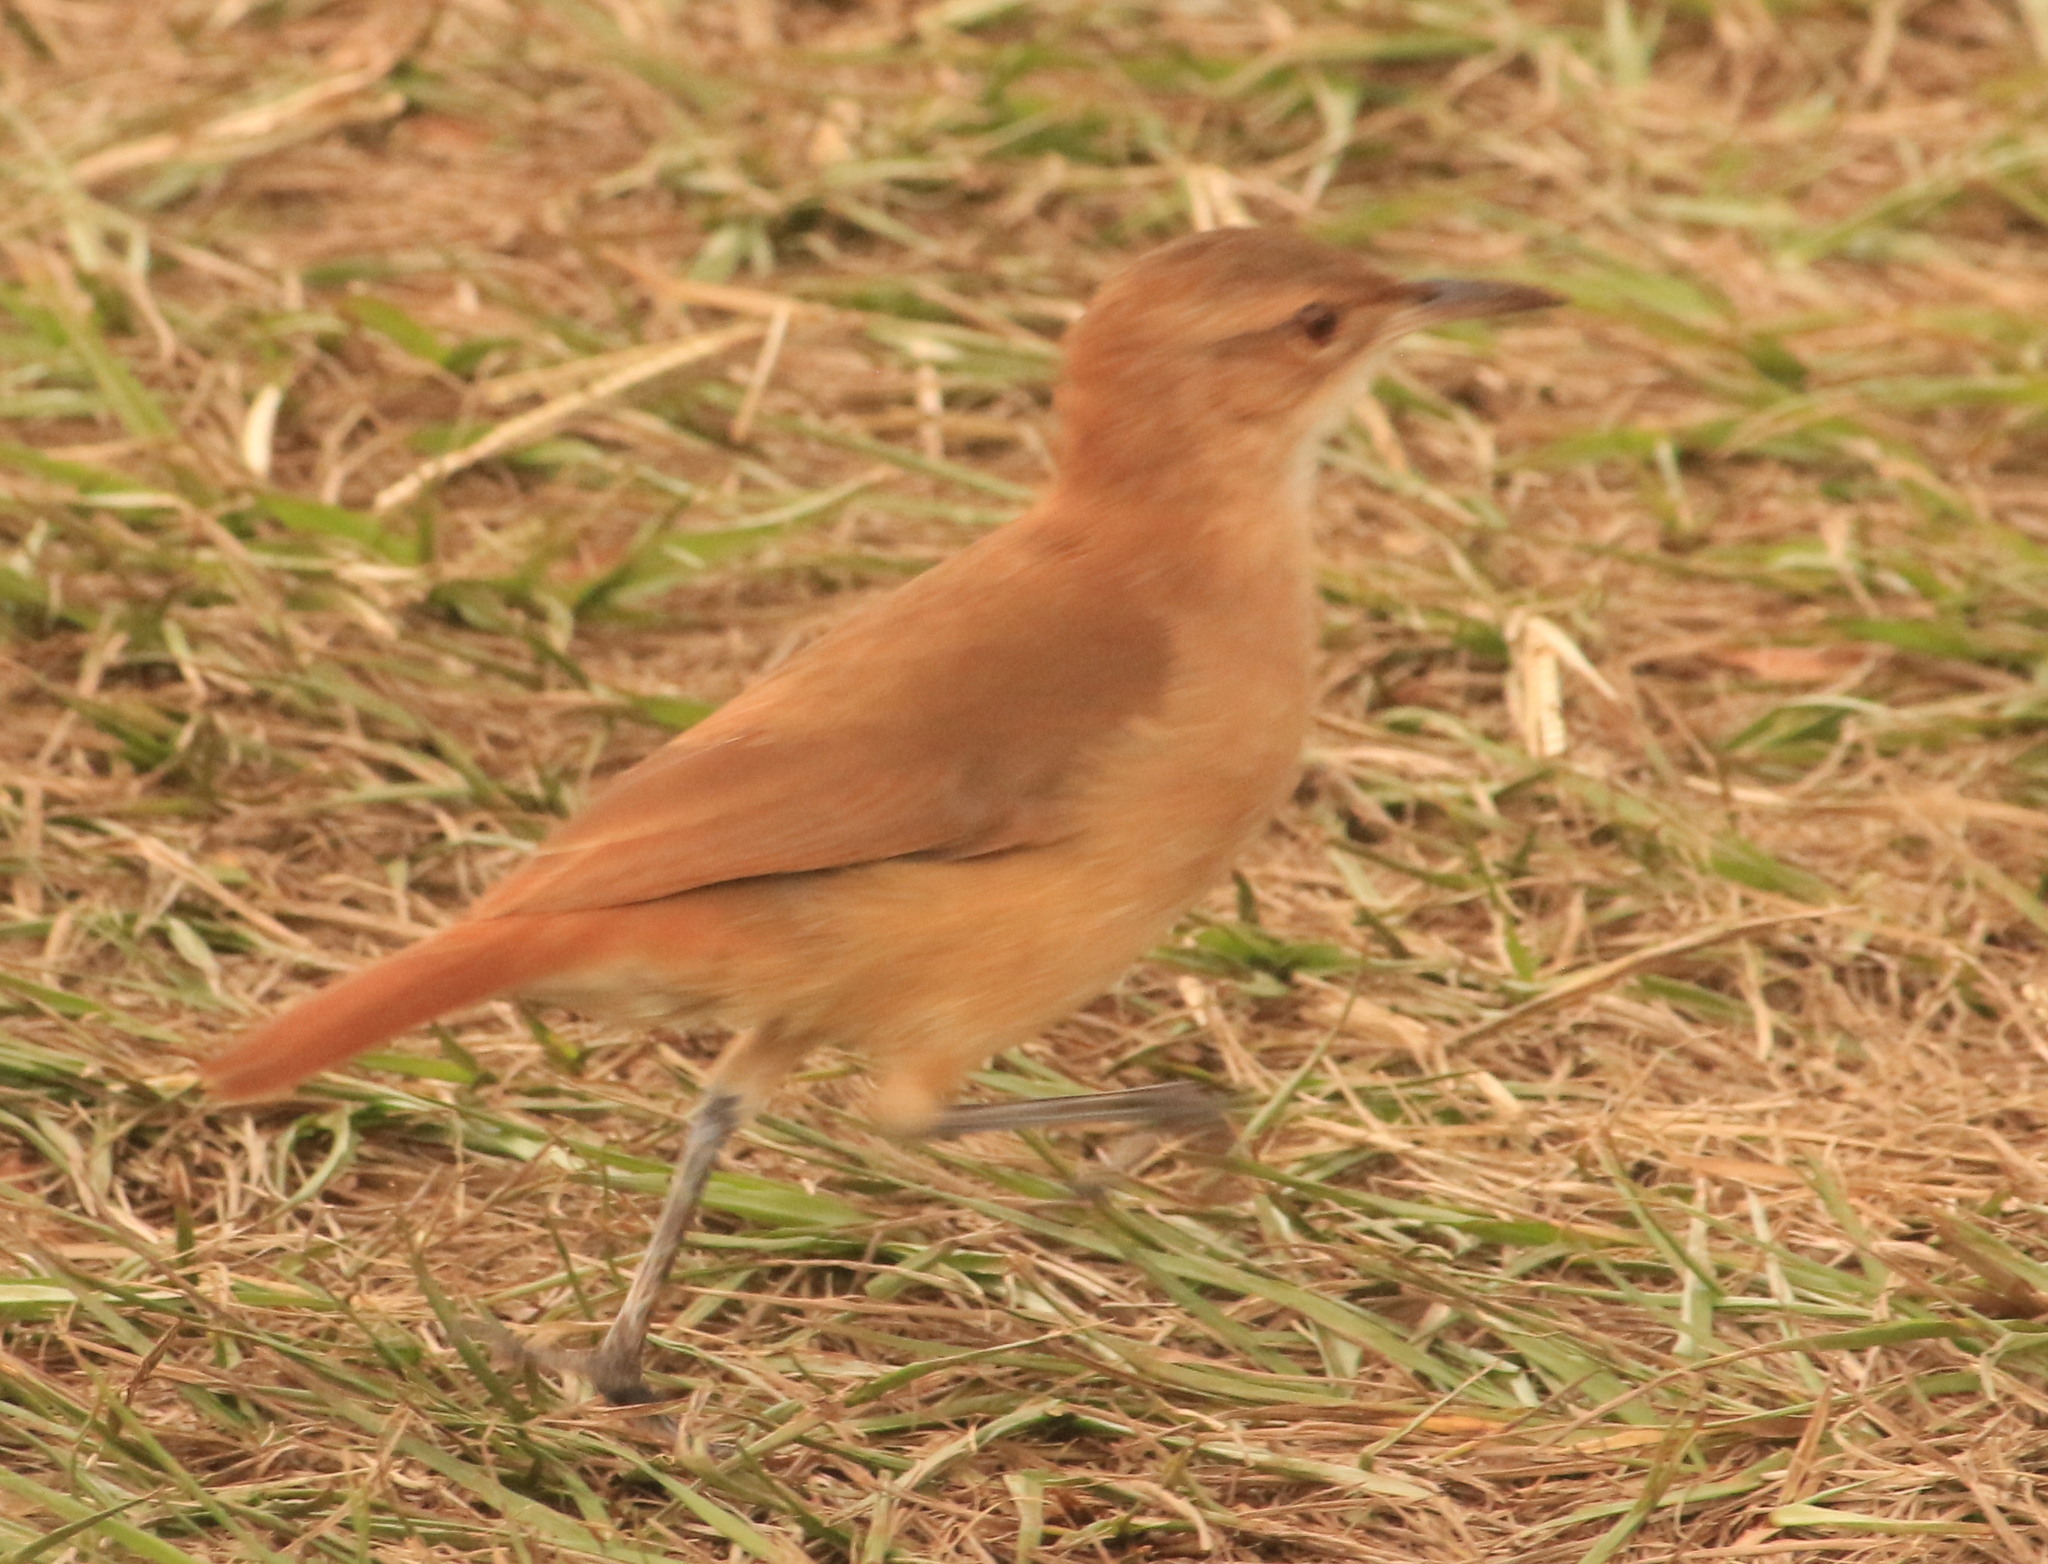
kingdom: Animalia
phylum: Chordata
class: Aves
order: Passeriformes
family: Furnariidae
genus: Furnarius
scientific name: Furnarius rufus
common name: Rufous hornero
